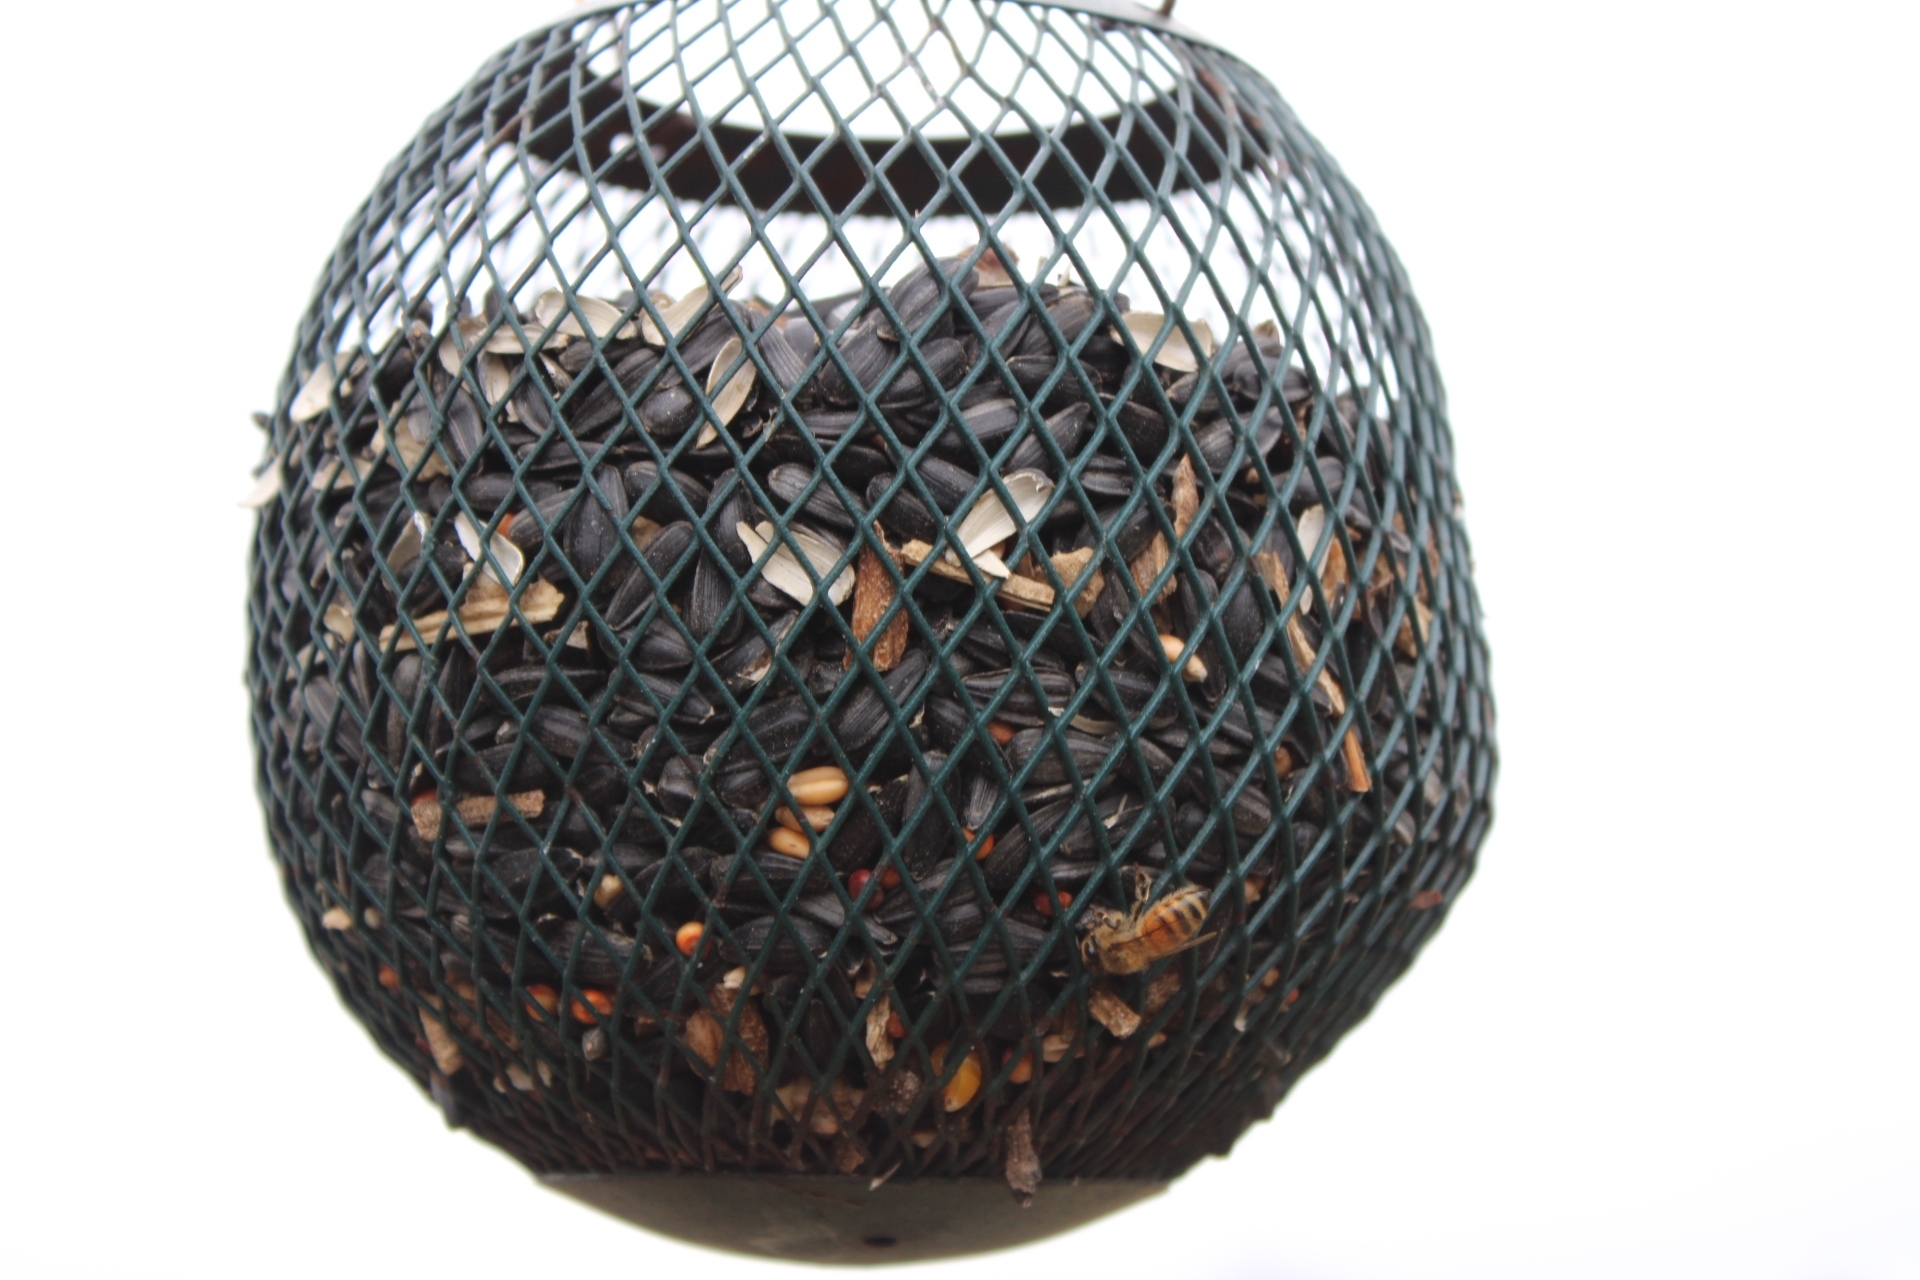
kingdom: Animalia
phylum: Arthropoda
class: Insecta
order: Hymenoptera
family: Apidae
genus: Apis
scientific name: Apis mellifera
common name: Honey bee
